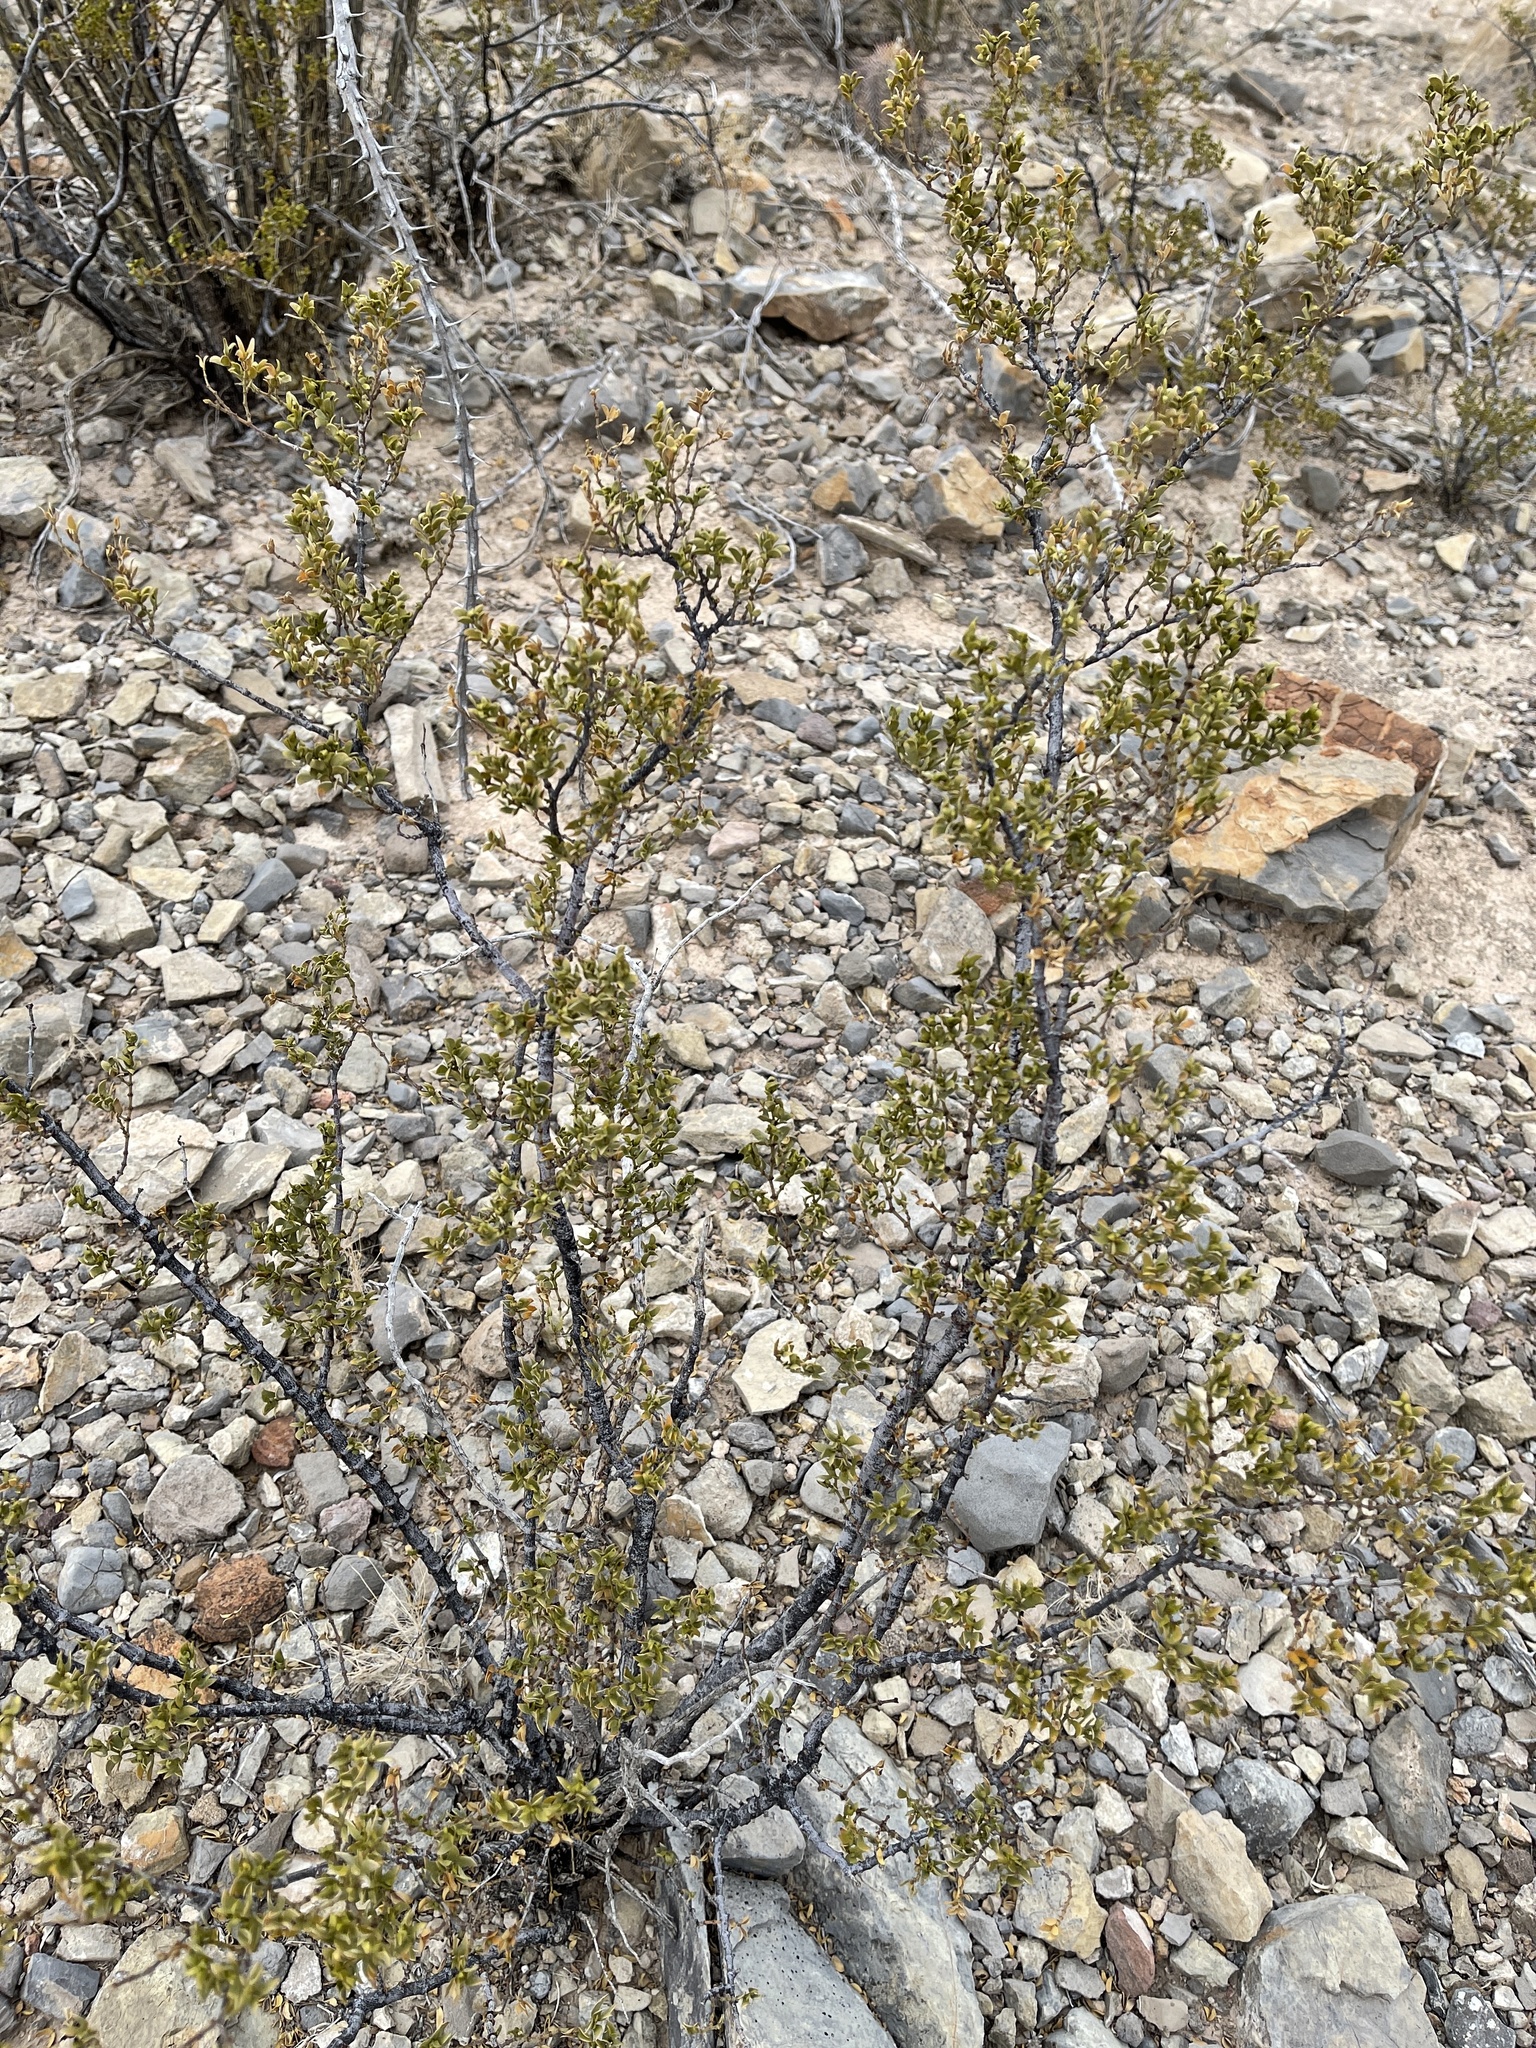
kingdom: Plantae
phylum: Tracheophyta
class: Magnoliopsida
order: Zygophyllales
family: Zygophyllaceae
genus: Larrea
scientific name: Larrea tridentata
